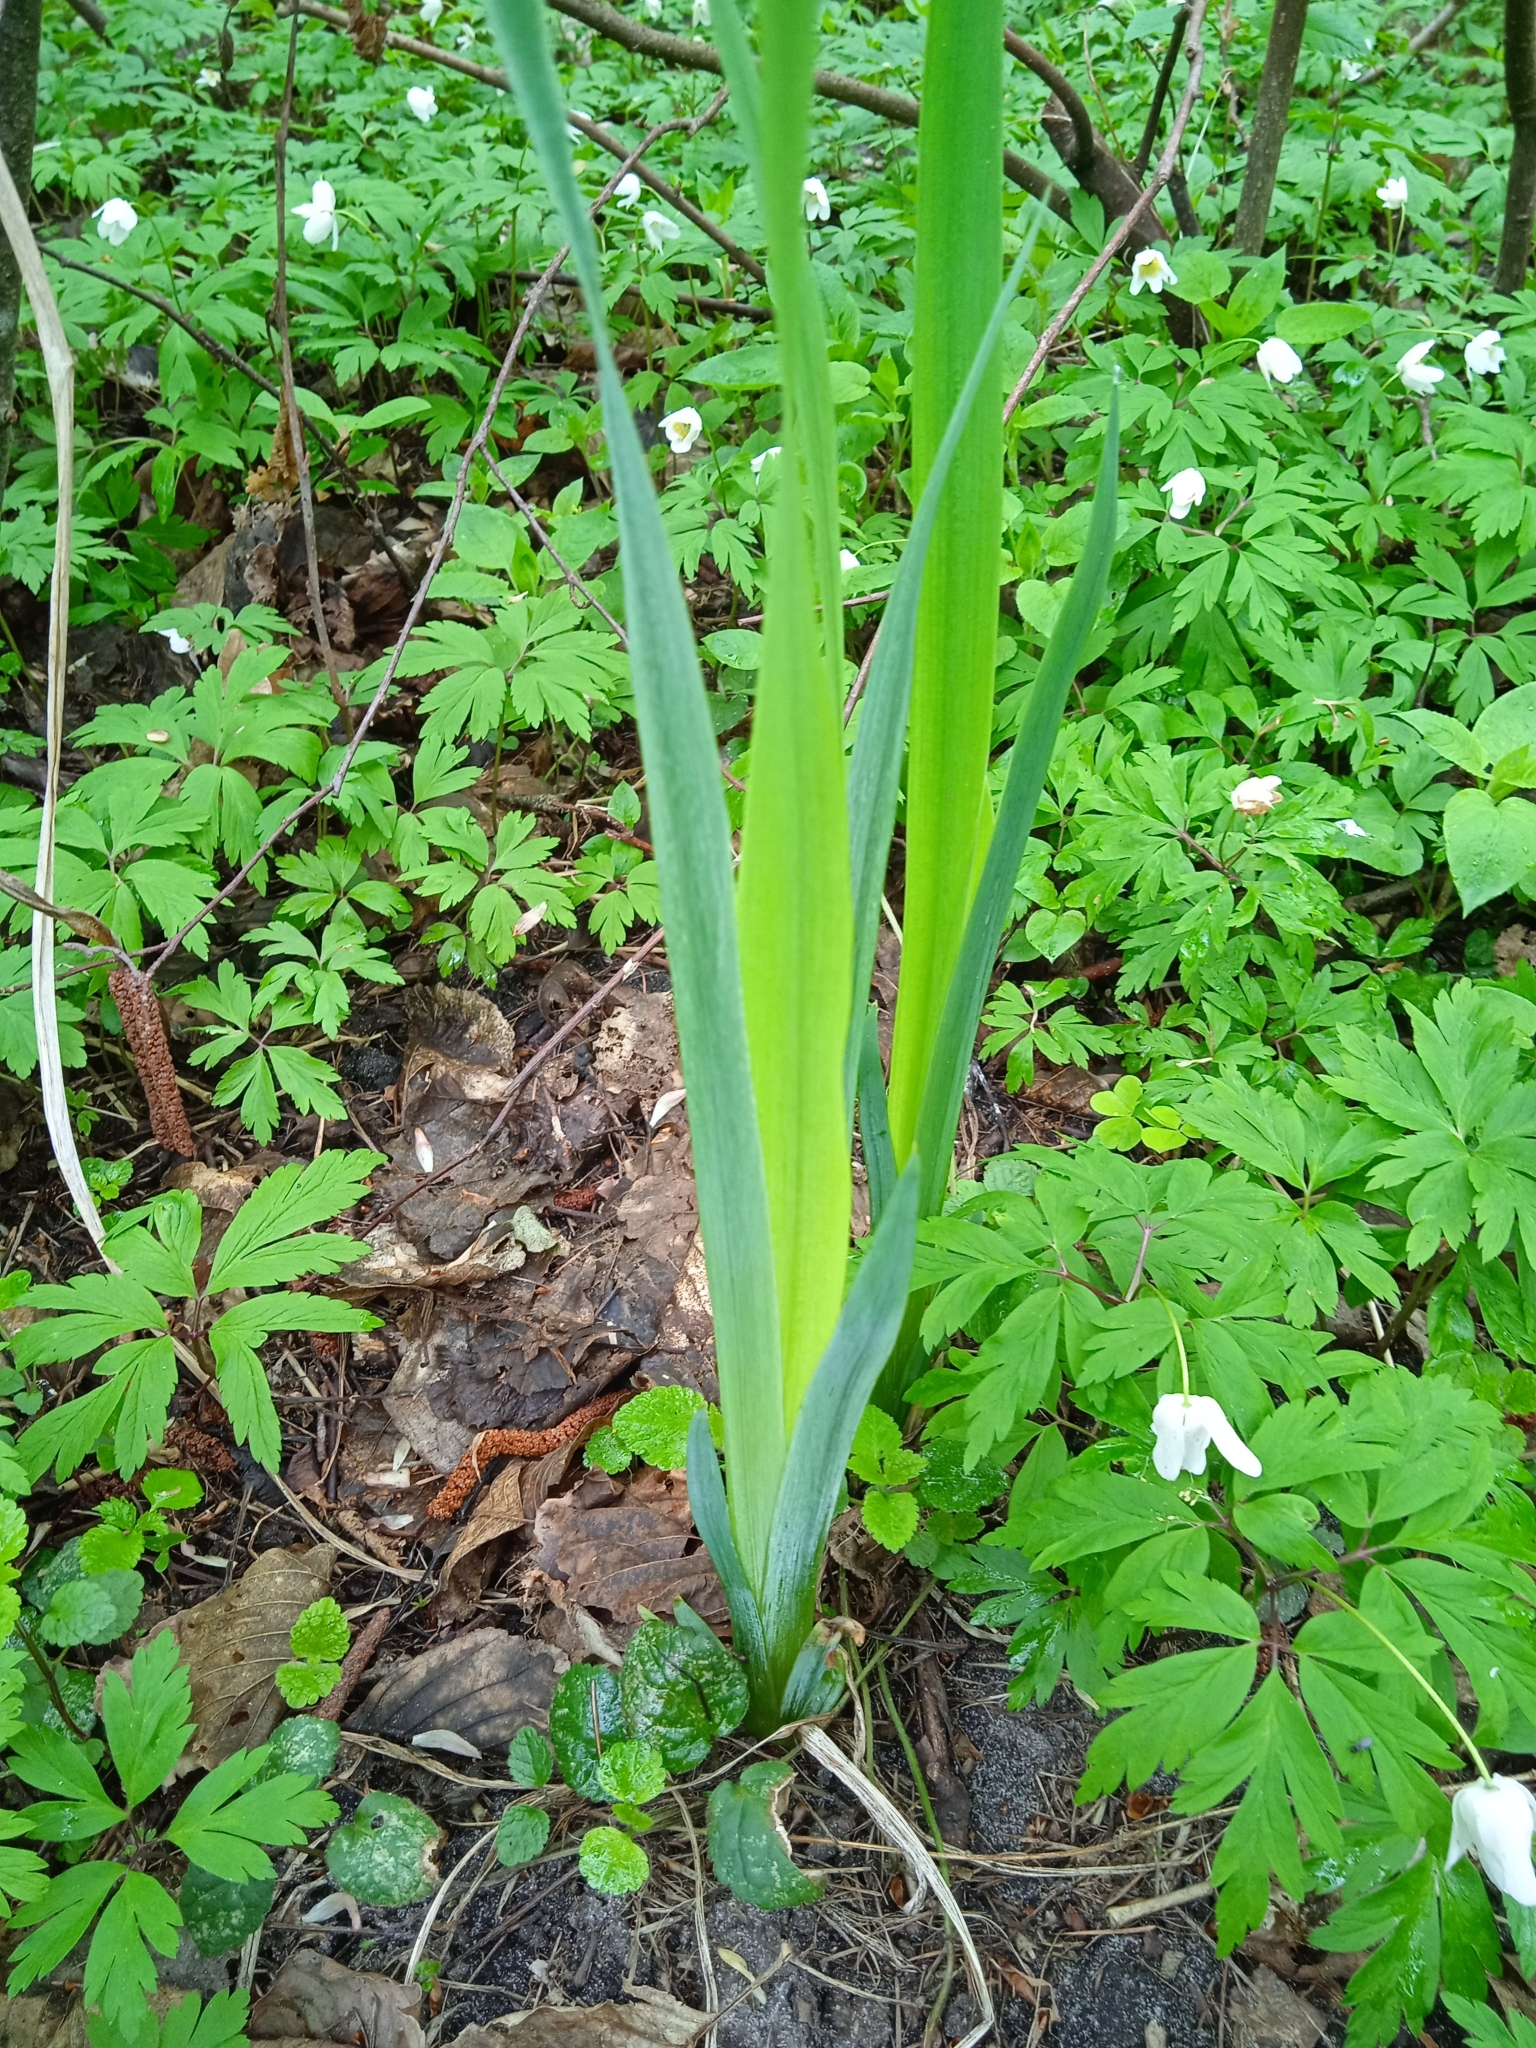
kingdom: Plantae
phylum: Tracheophyta
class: Liliopsida
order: Asparagales
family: Iridaceae
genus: Iris
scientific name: Iris pseudacorus
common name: Yellow flag
